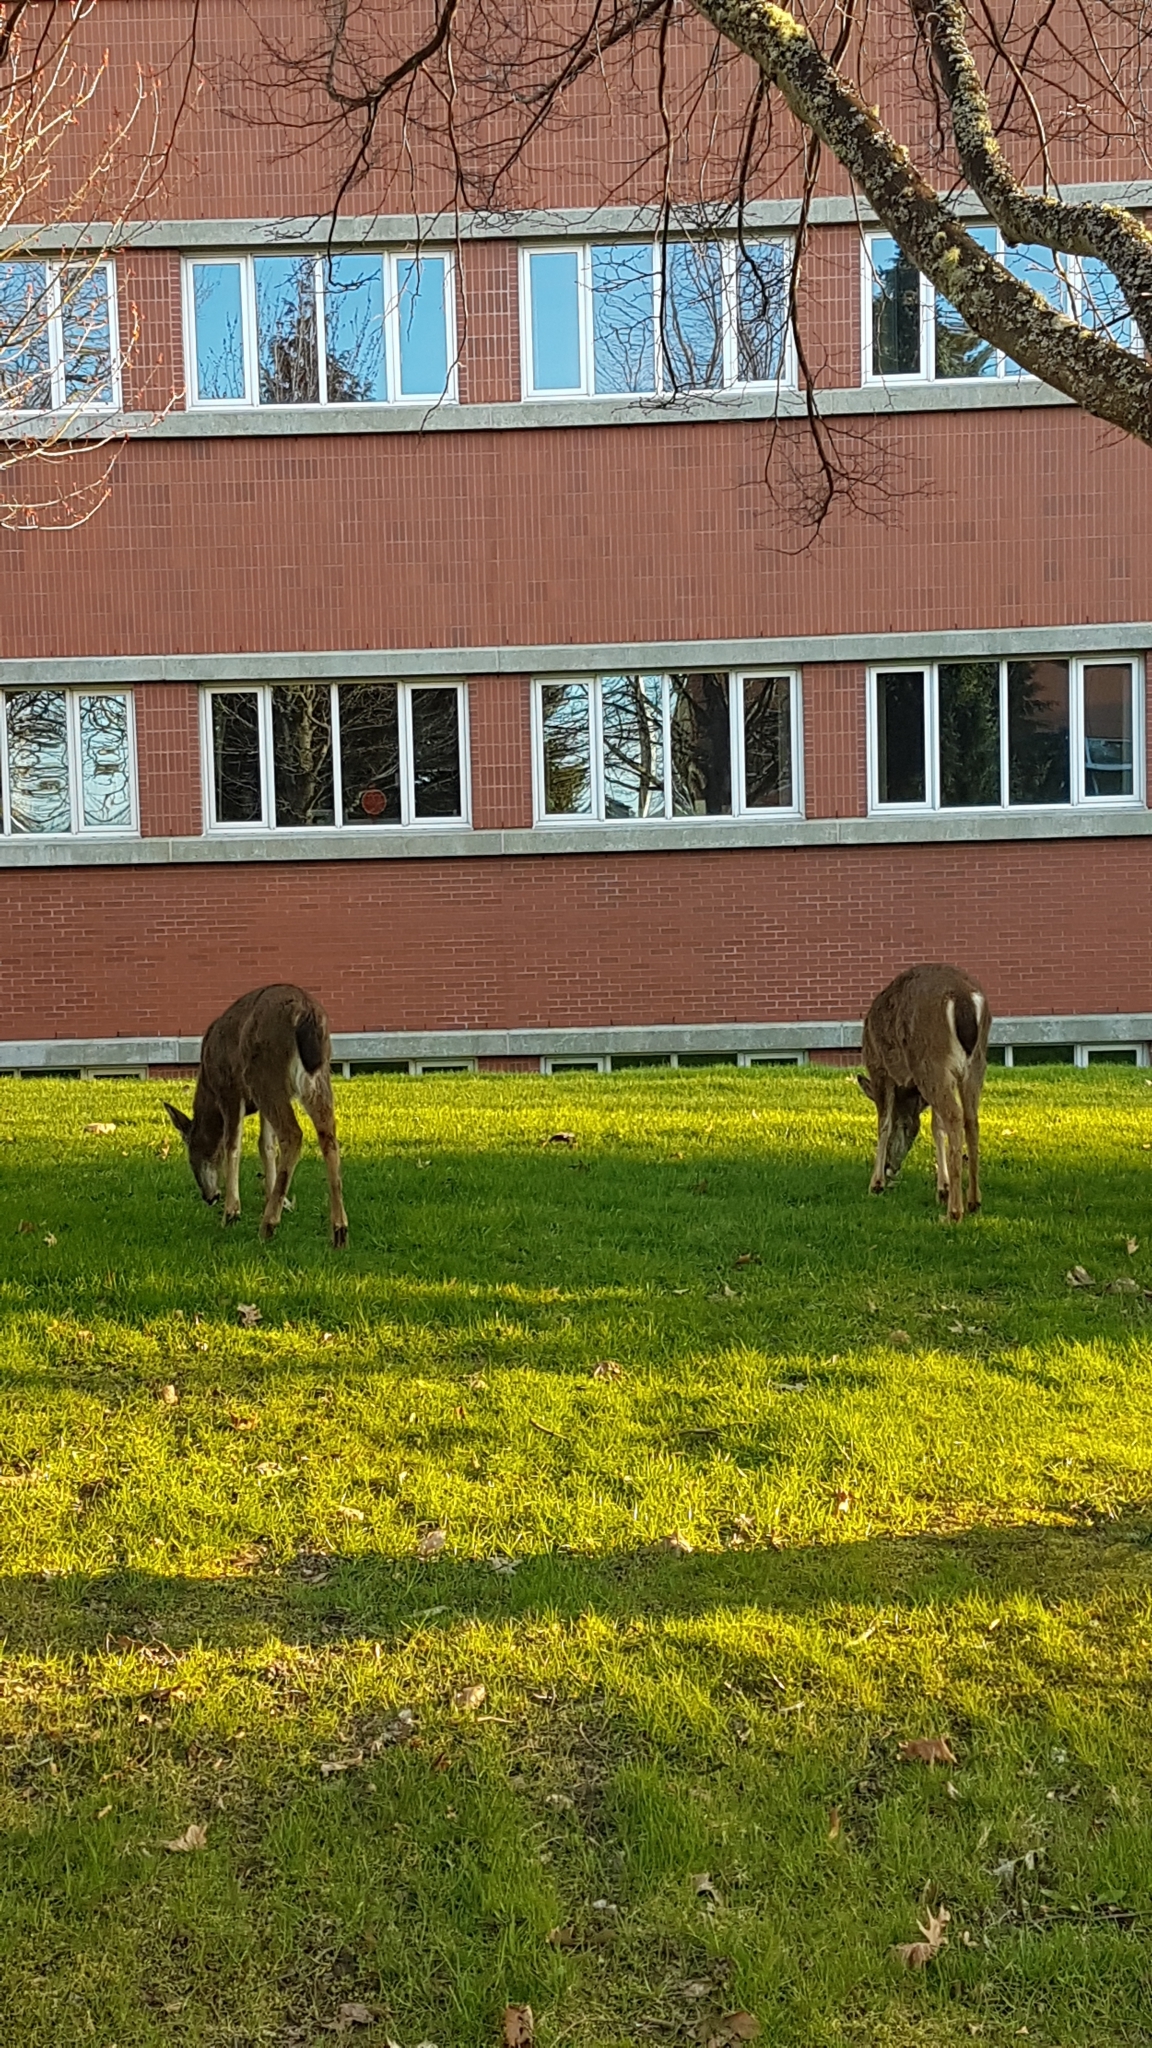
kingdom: Animalia
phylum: Chordata
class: Mammalia
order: Artiodactyla
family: Cervidae
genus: Odocoileus
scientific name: Odocoileus hemionus
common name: Mule deer
